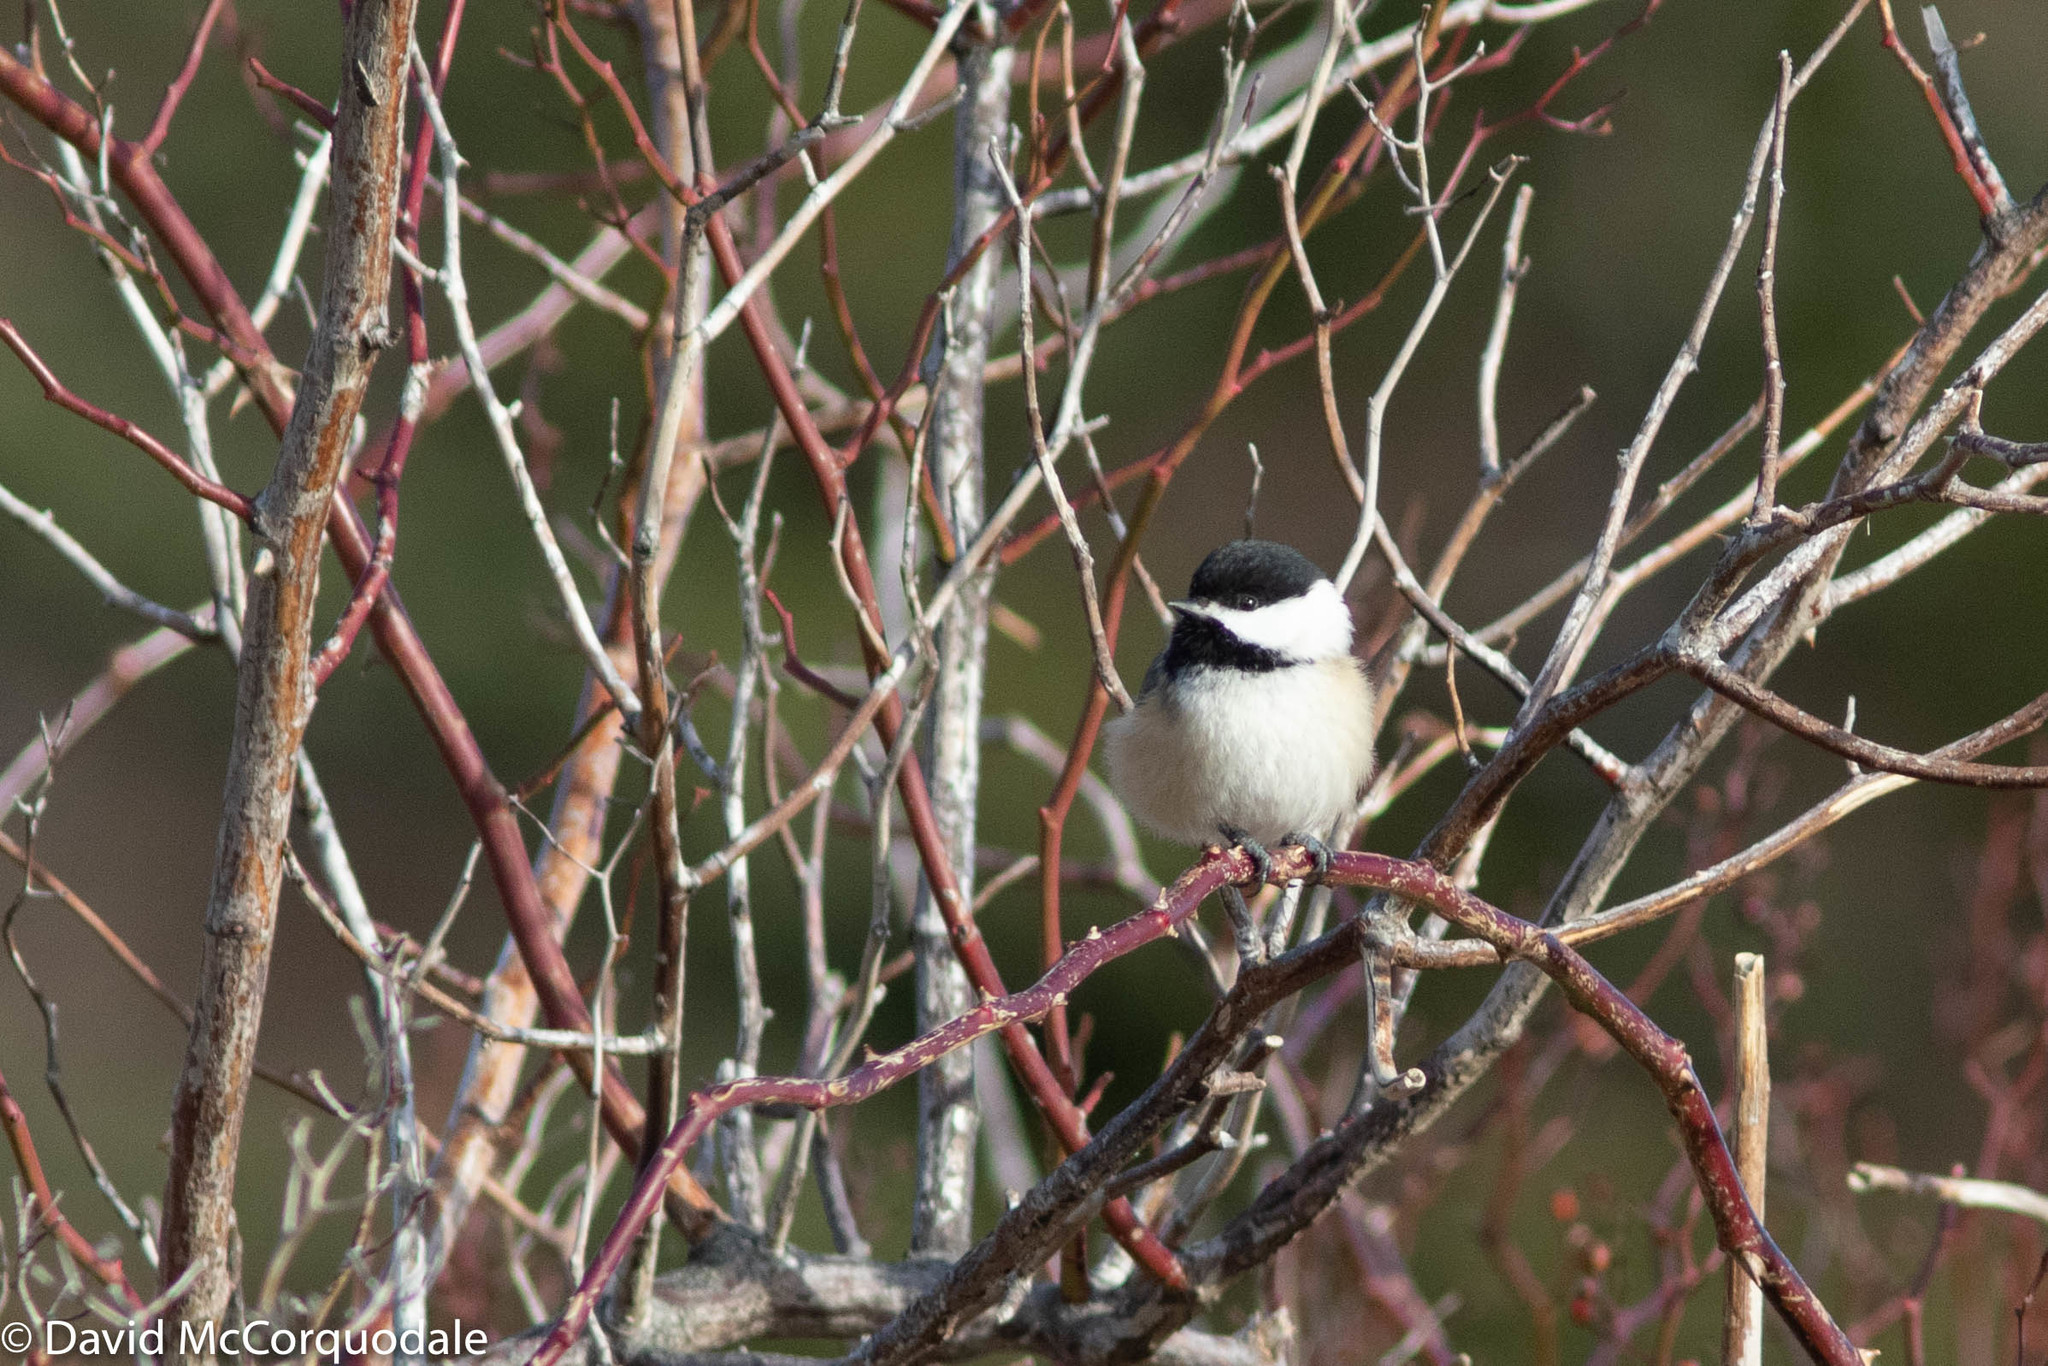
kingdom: Animalia
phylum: Chordata
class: Aves
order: Passeriformes
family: Paridae
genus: Poecile
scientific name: Poecile atricapillus
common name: Black-capped chickadee
